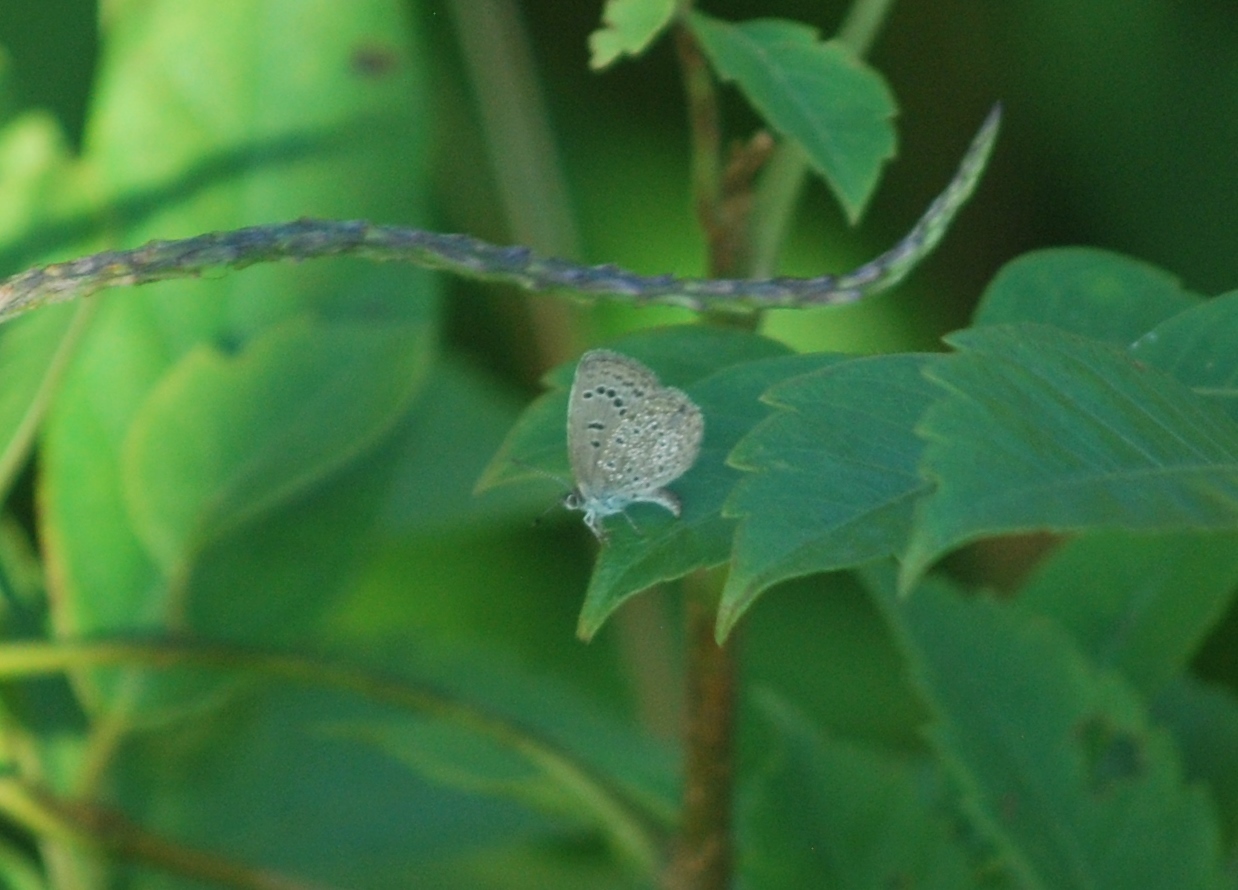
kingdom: Animalia
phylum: Arthropoda
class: Insecta
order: Lepidoptera
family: Lycaenidae
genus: Zizeeria
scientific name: Zizeeria karsandra
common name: Dark grass blue
